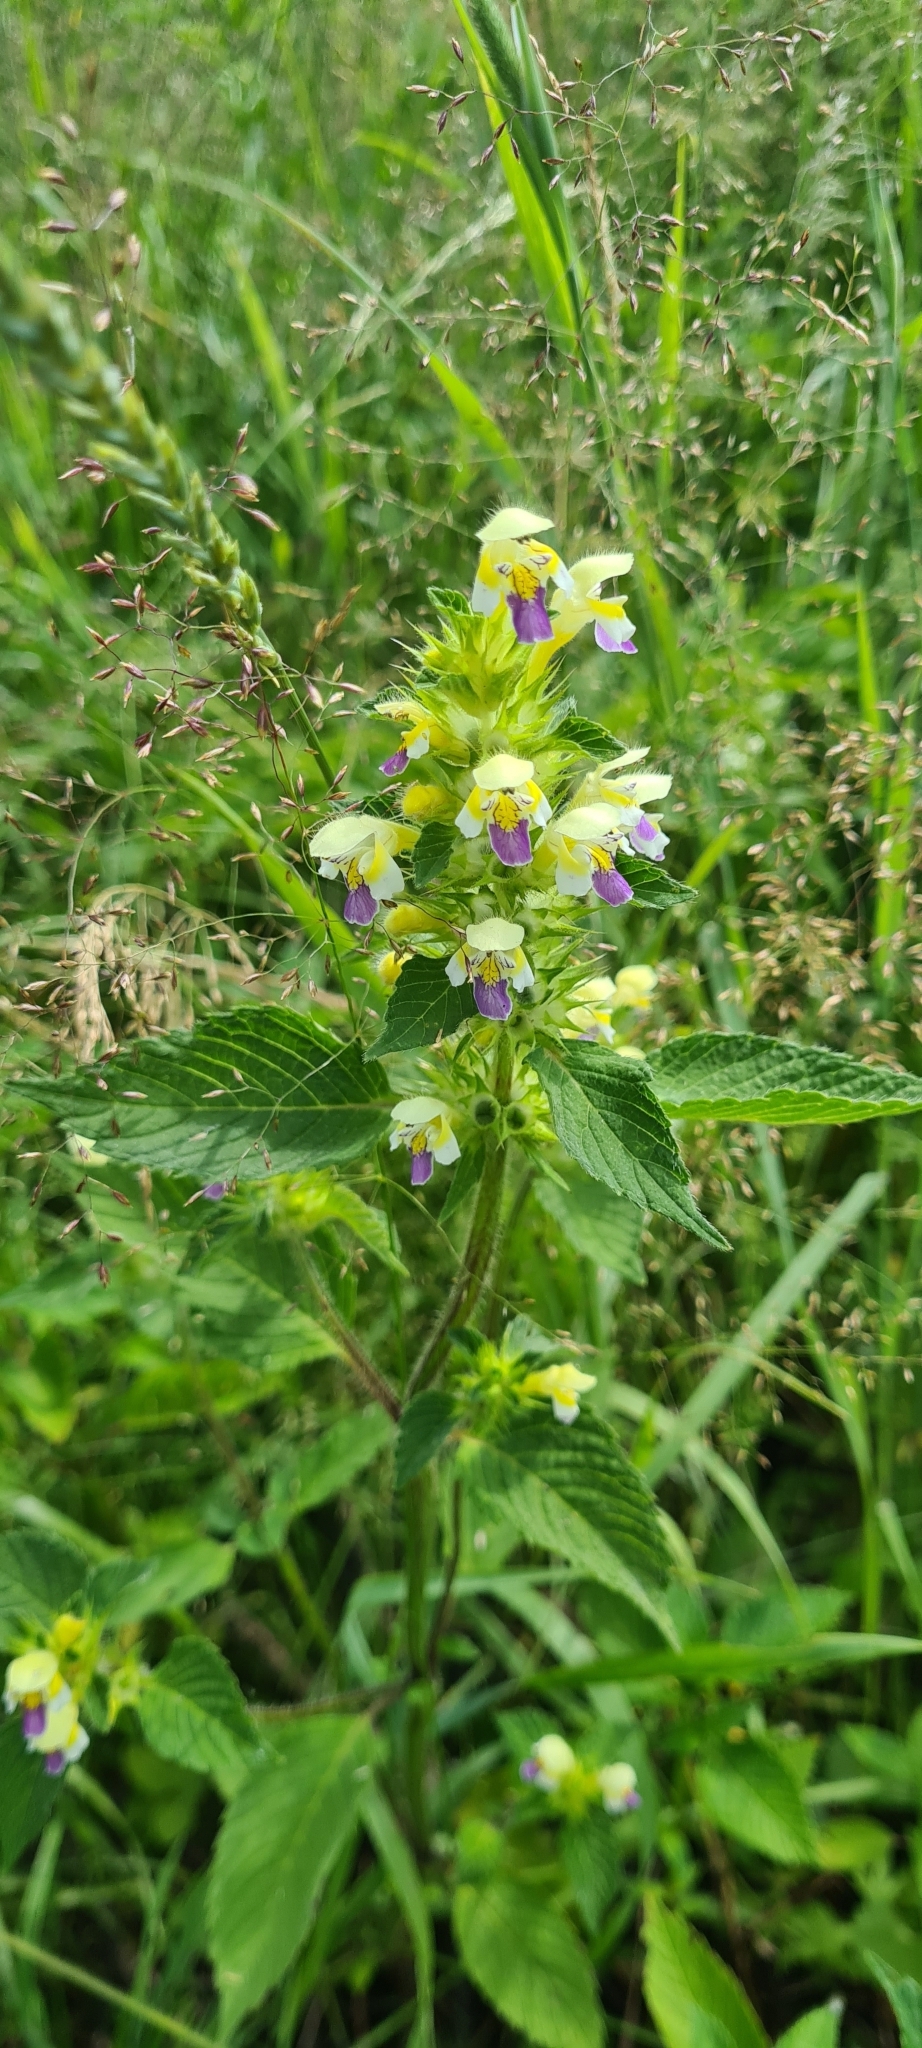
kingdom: Plantae
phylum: Tracheophyta
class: Magnoliopsida
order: Lamiales
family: Lamiaceae
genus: Galeopsis
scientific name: Galeopsis speciosa
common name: Large-flowered hemp-nettle
